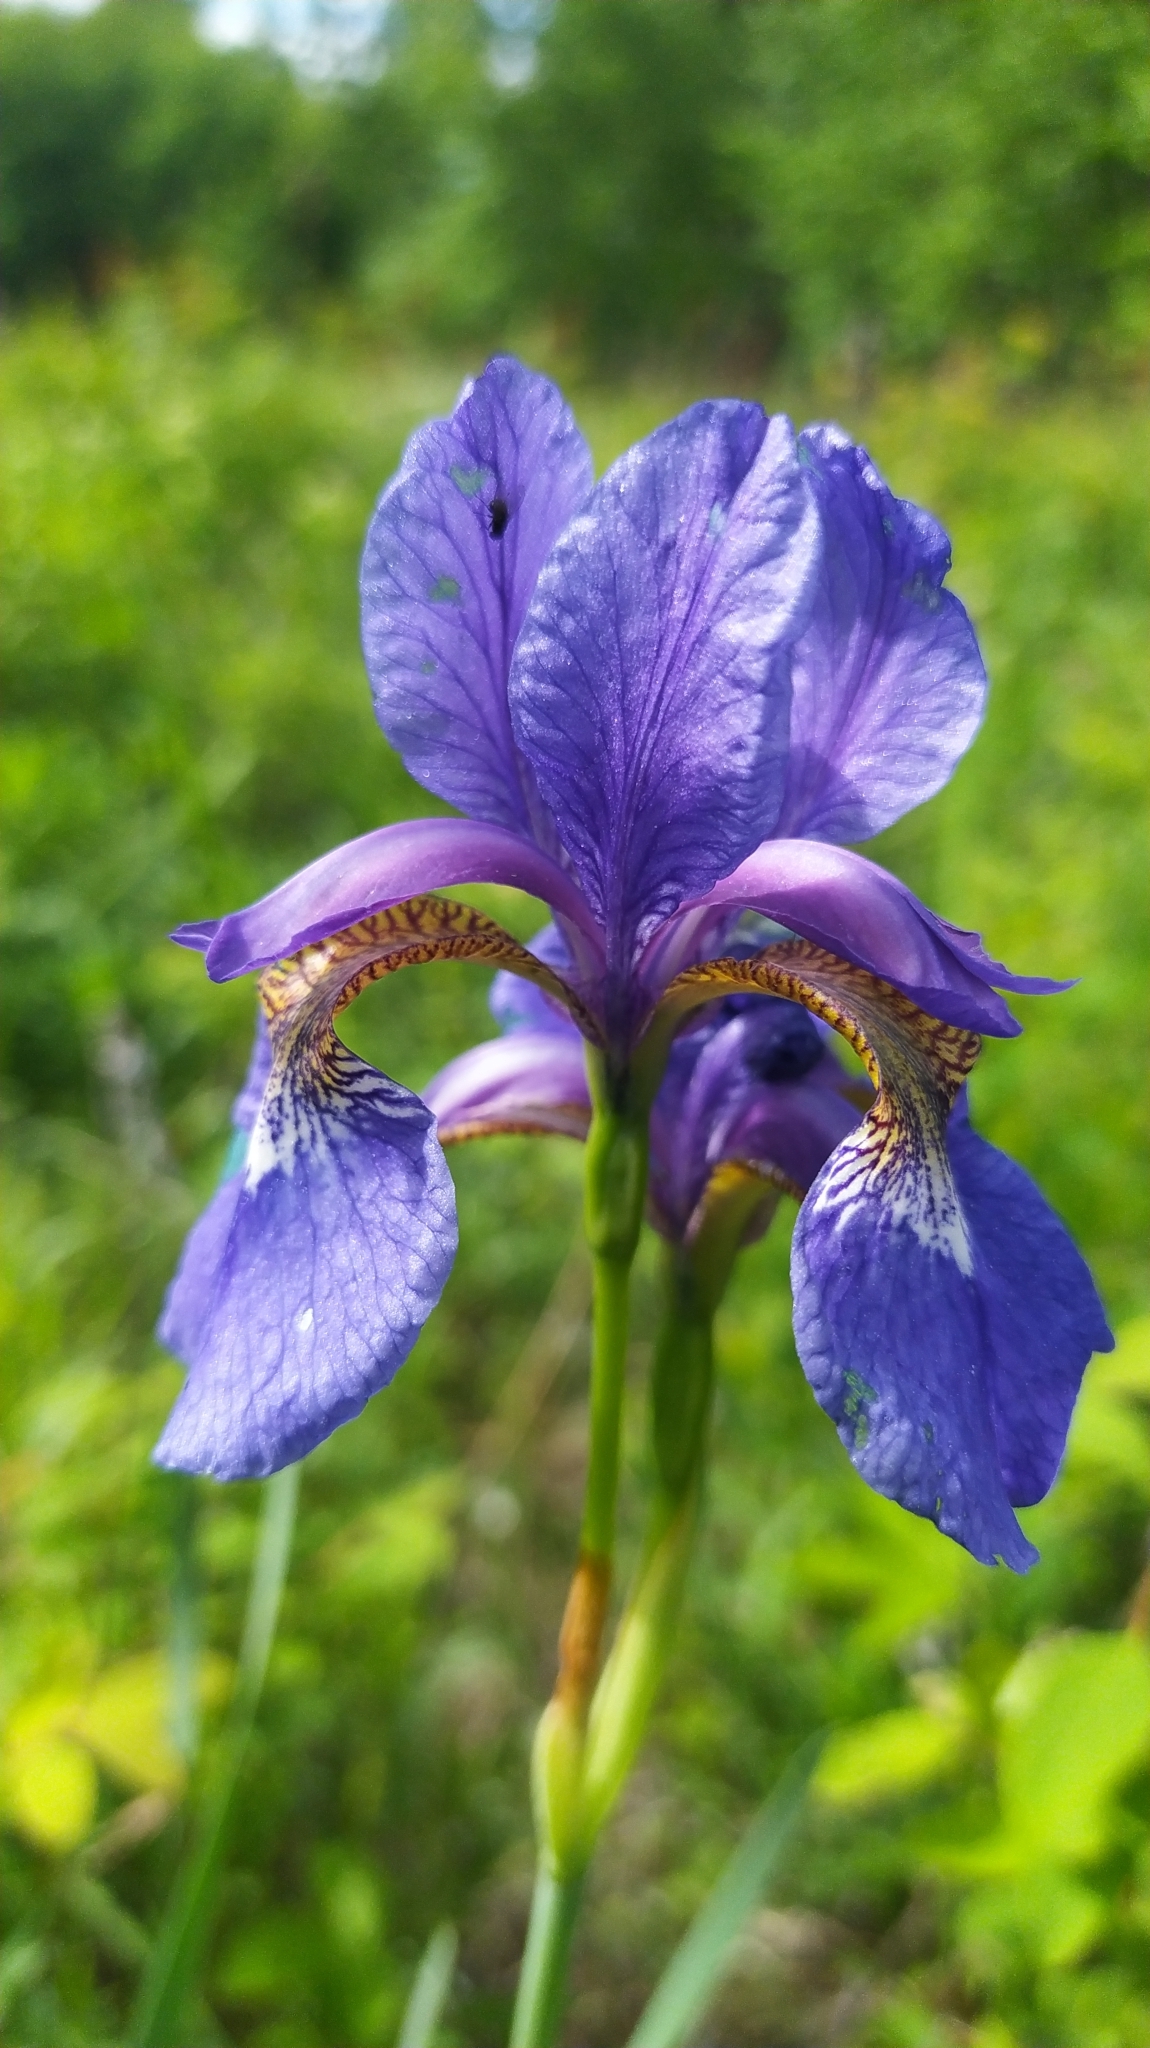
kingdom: Plantae
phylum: Tracheophyta
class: Liliopsida
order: Asparagales
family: Iridaceae
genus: Iris
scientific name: Iris sanguinea
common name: Blood iris
